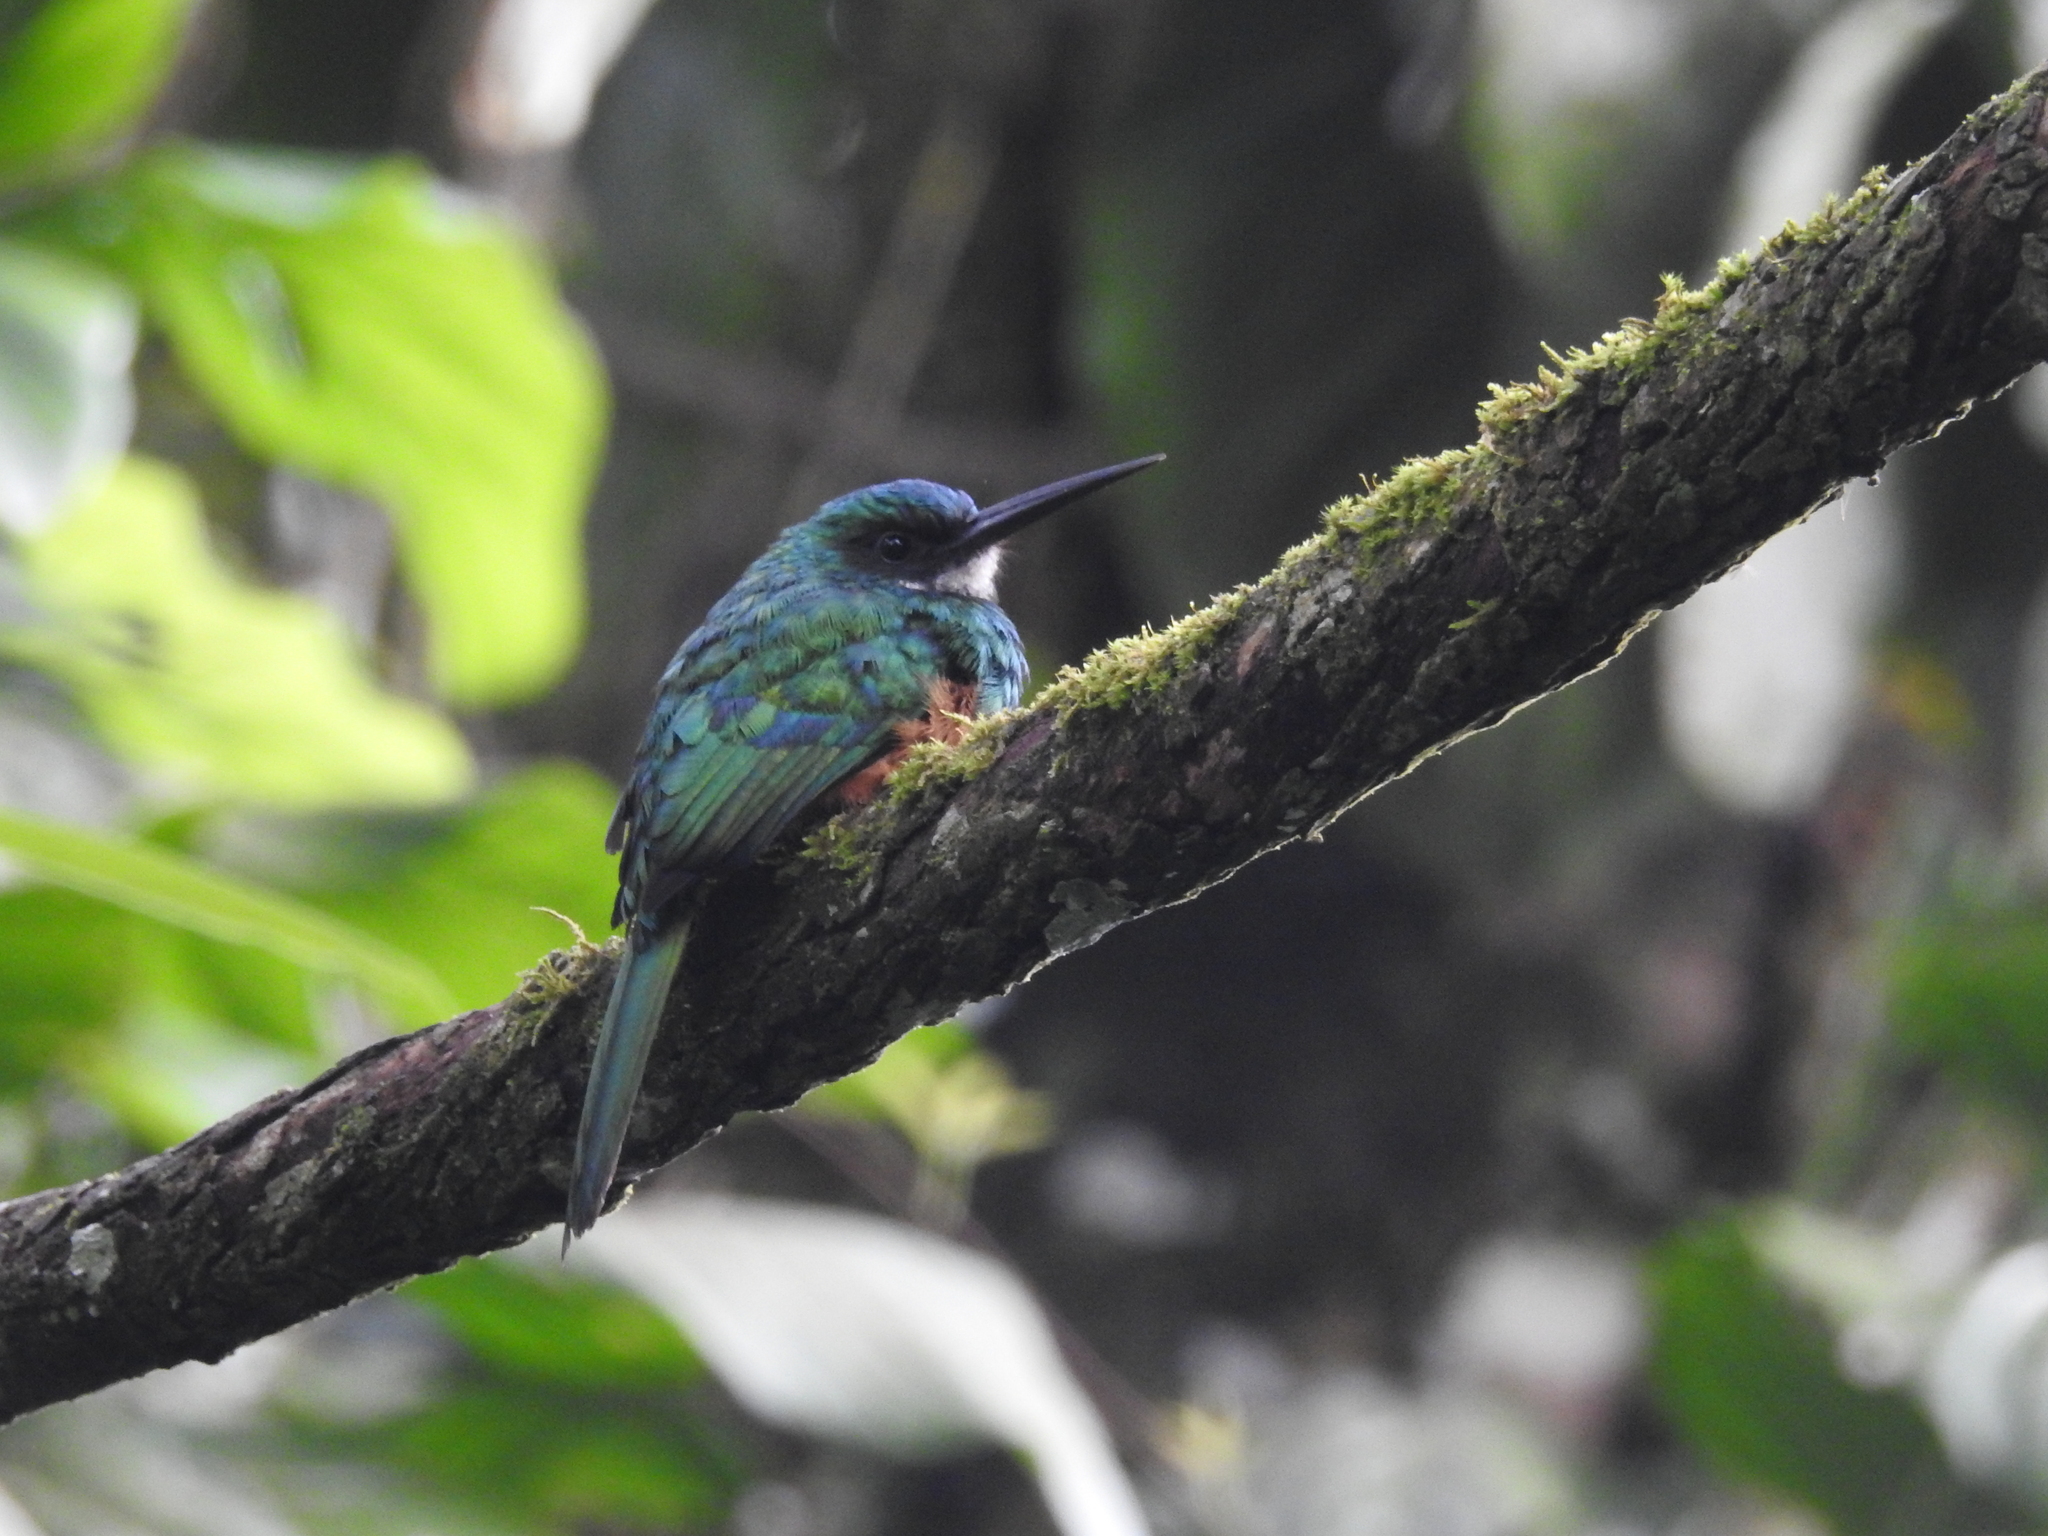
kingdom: Animalia
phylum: Chordata
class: Aves
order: Piciformes
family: Galbulidae
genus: Galbula
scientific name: Galbula ruficauda
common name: Rufous-tailed jacamar
